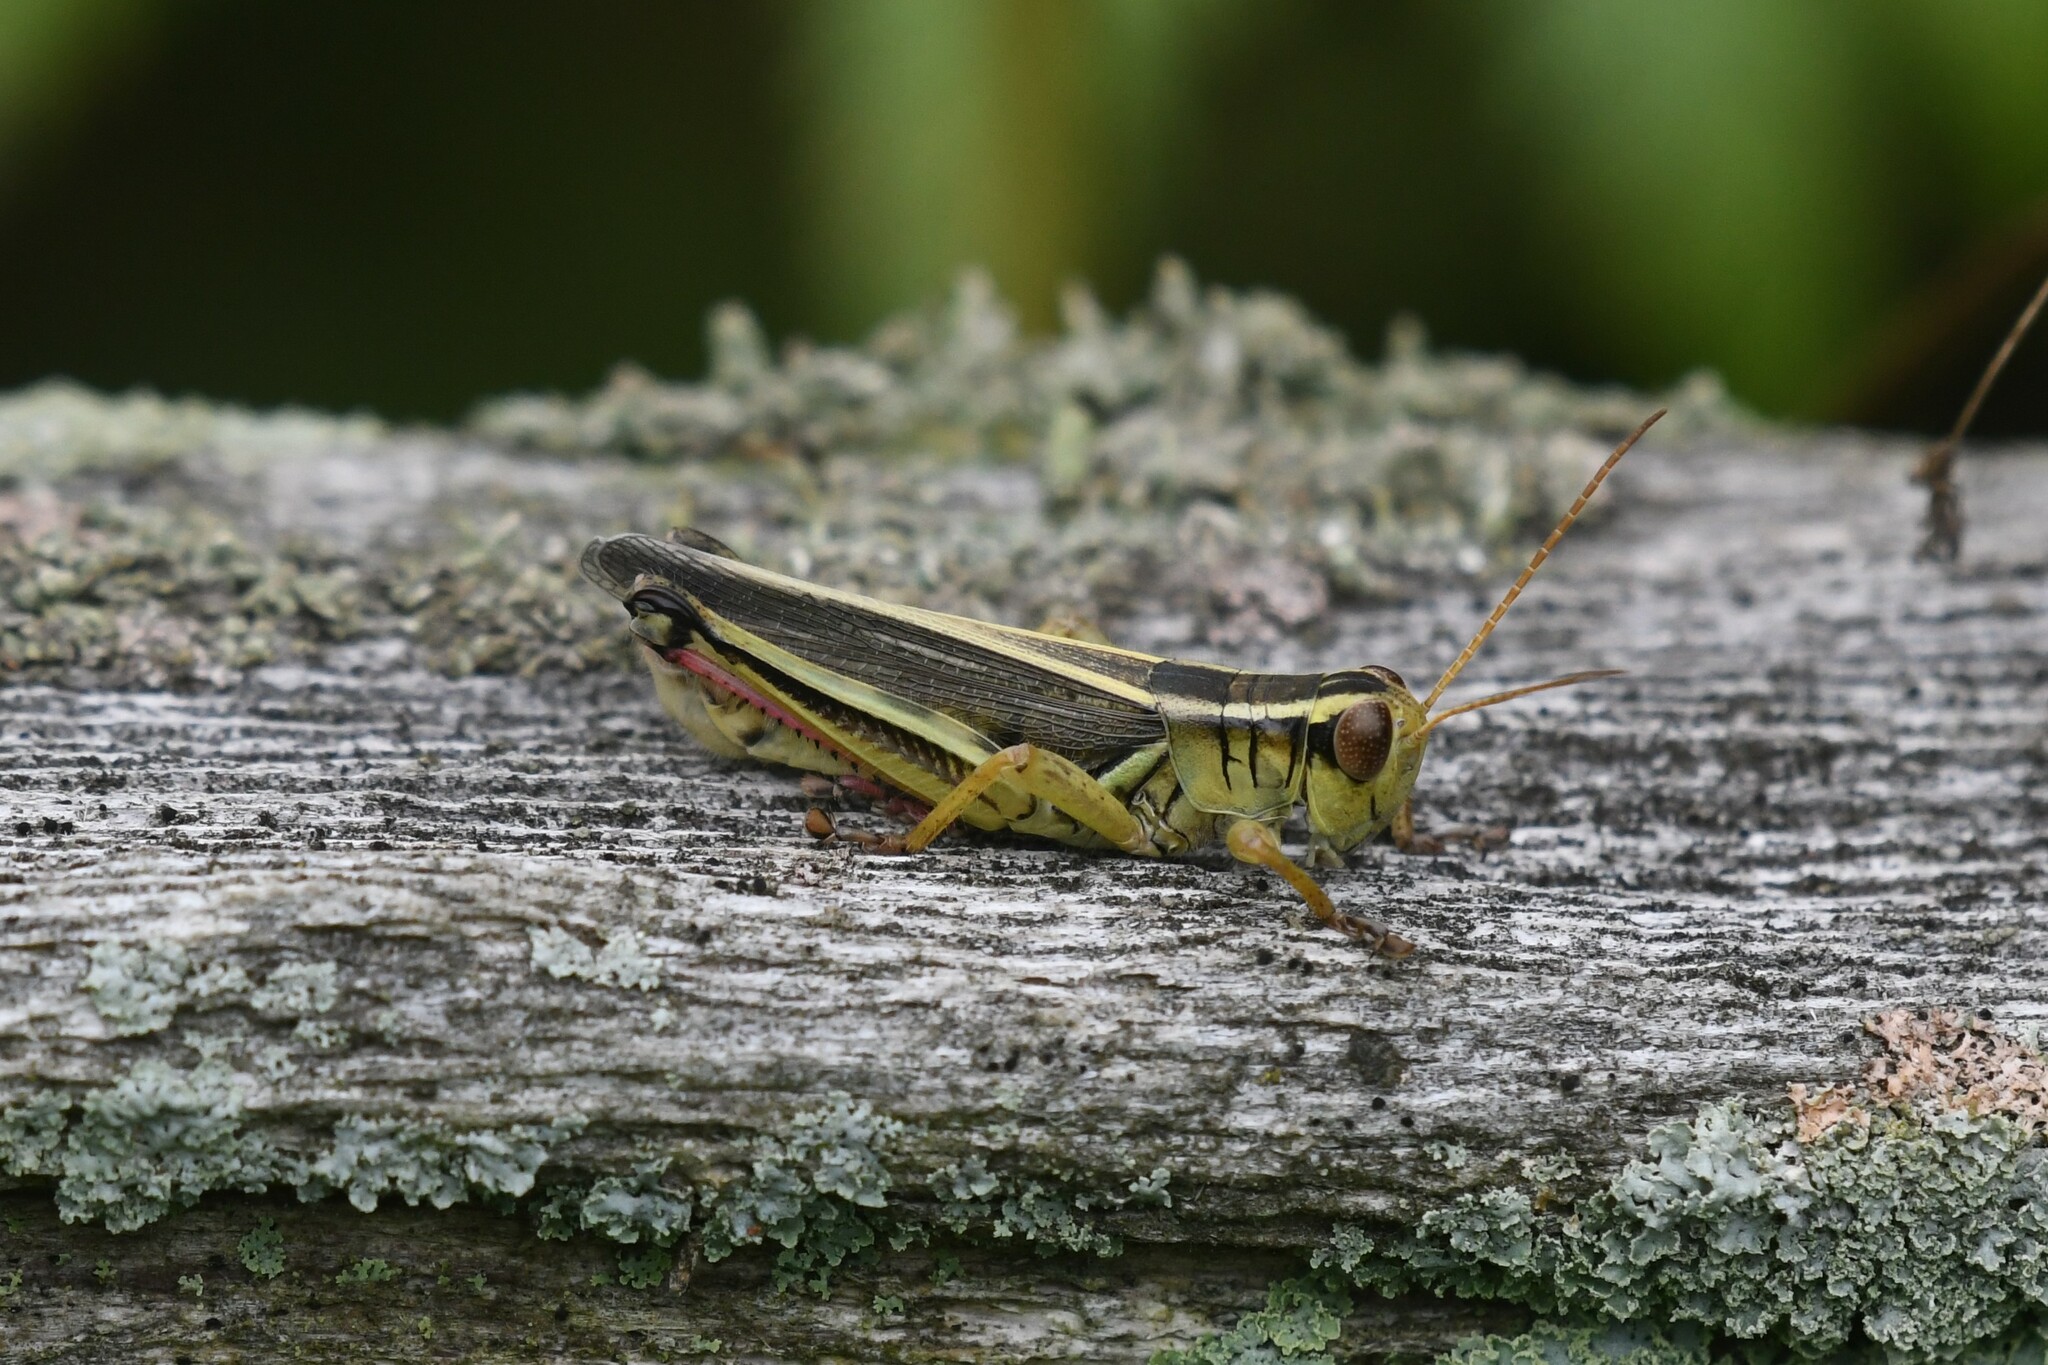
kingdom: Animalia
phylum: Arthropoda
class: Insecta
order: Orthoptera
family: Acrididae
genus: Melanoplus
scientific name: Melanoplus bivittatus
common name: Two-striped grasshopper
